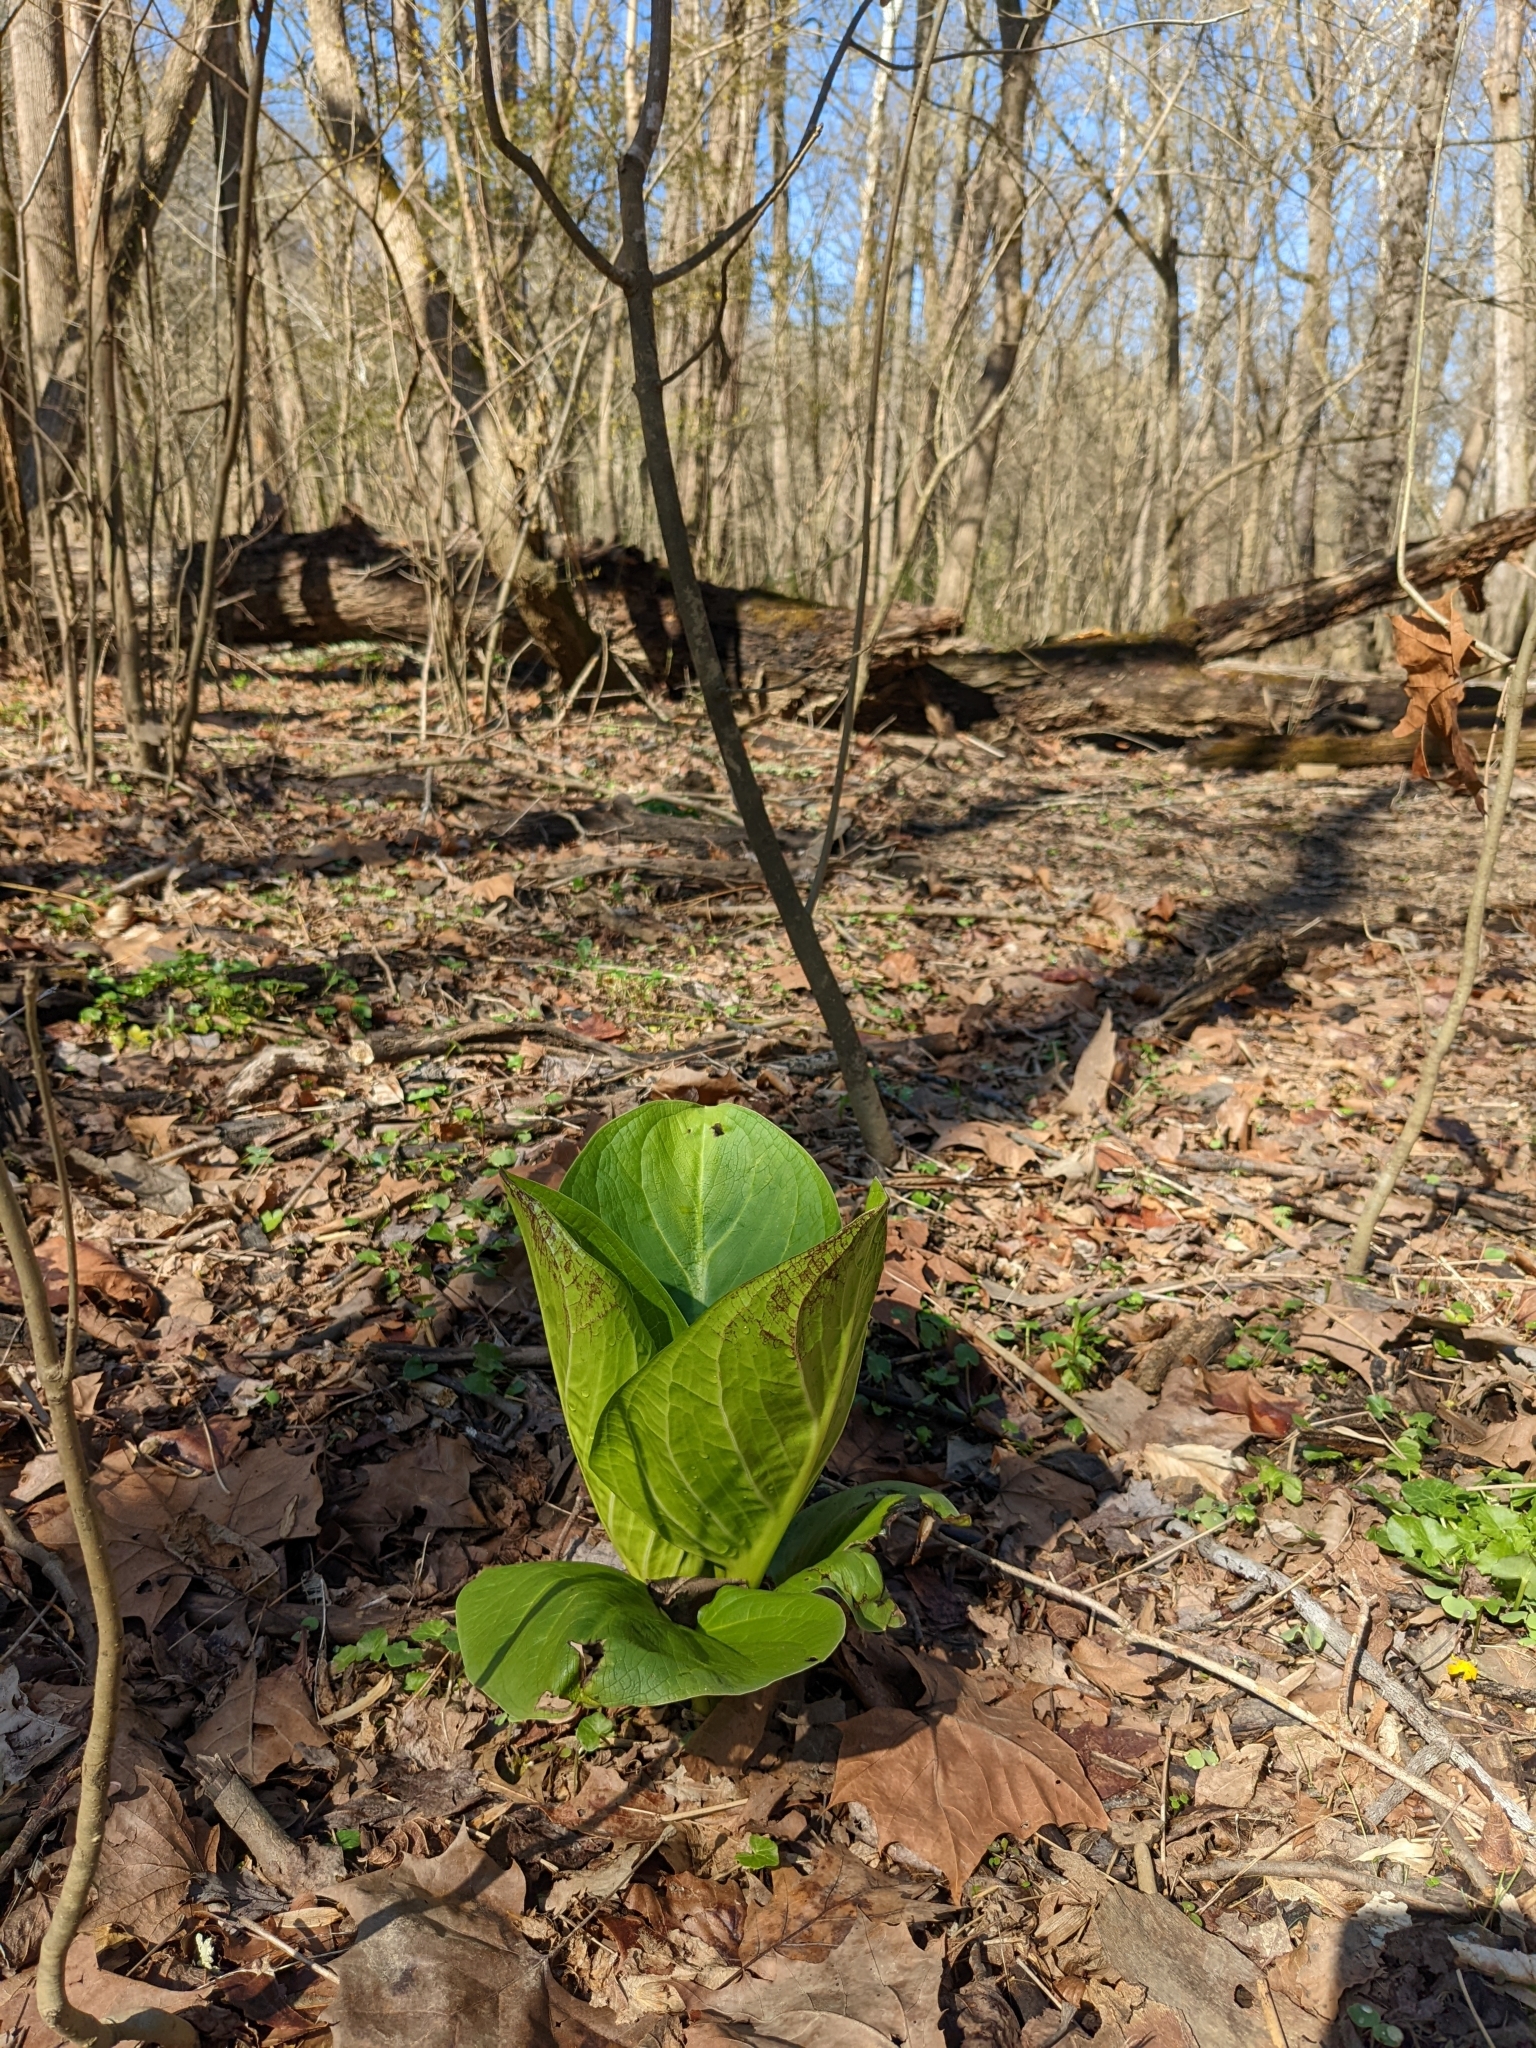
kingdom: Plantae
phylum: Tracheophyta
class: Liliopsida
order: Alismatales
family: Araceae
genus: Symplocarpus
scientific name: Symplocarpus foetidus
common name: Eastern skunk cabbage
